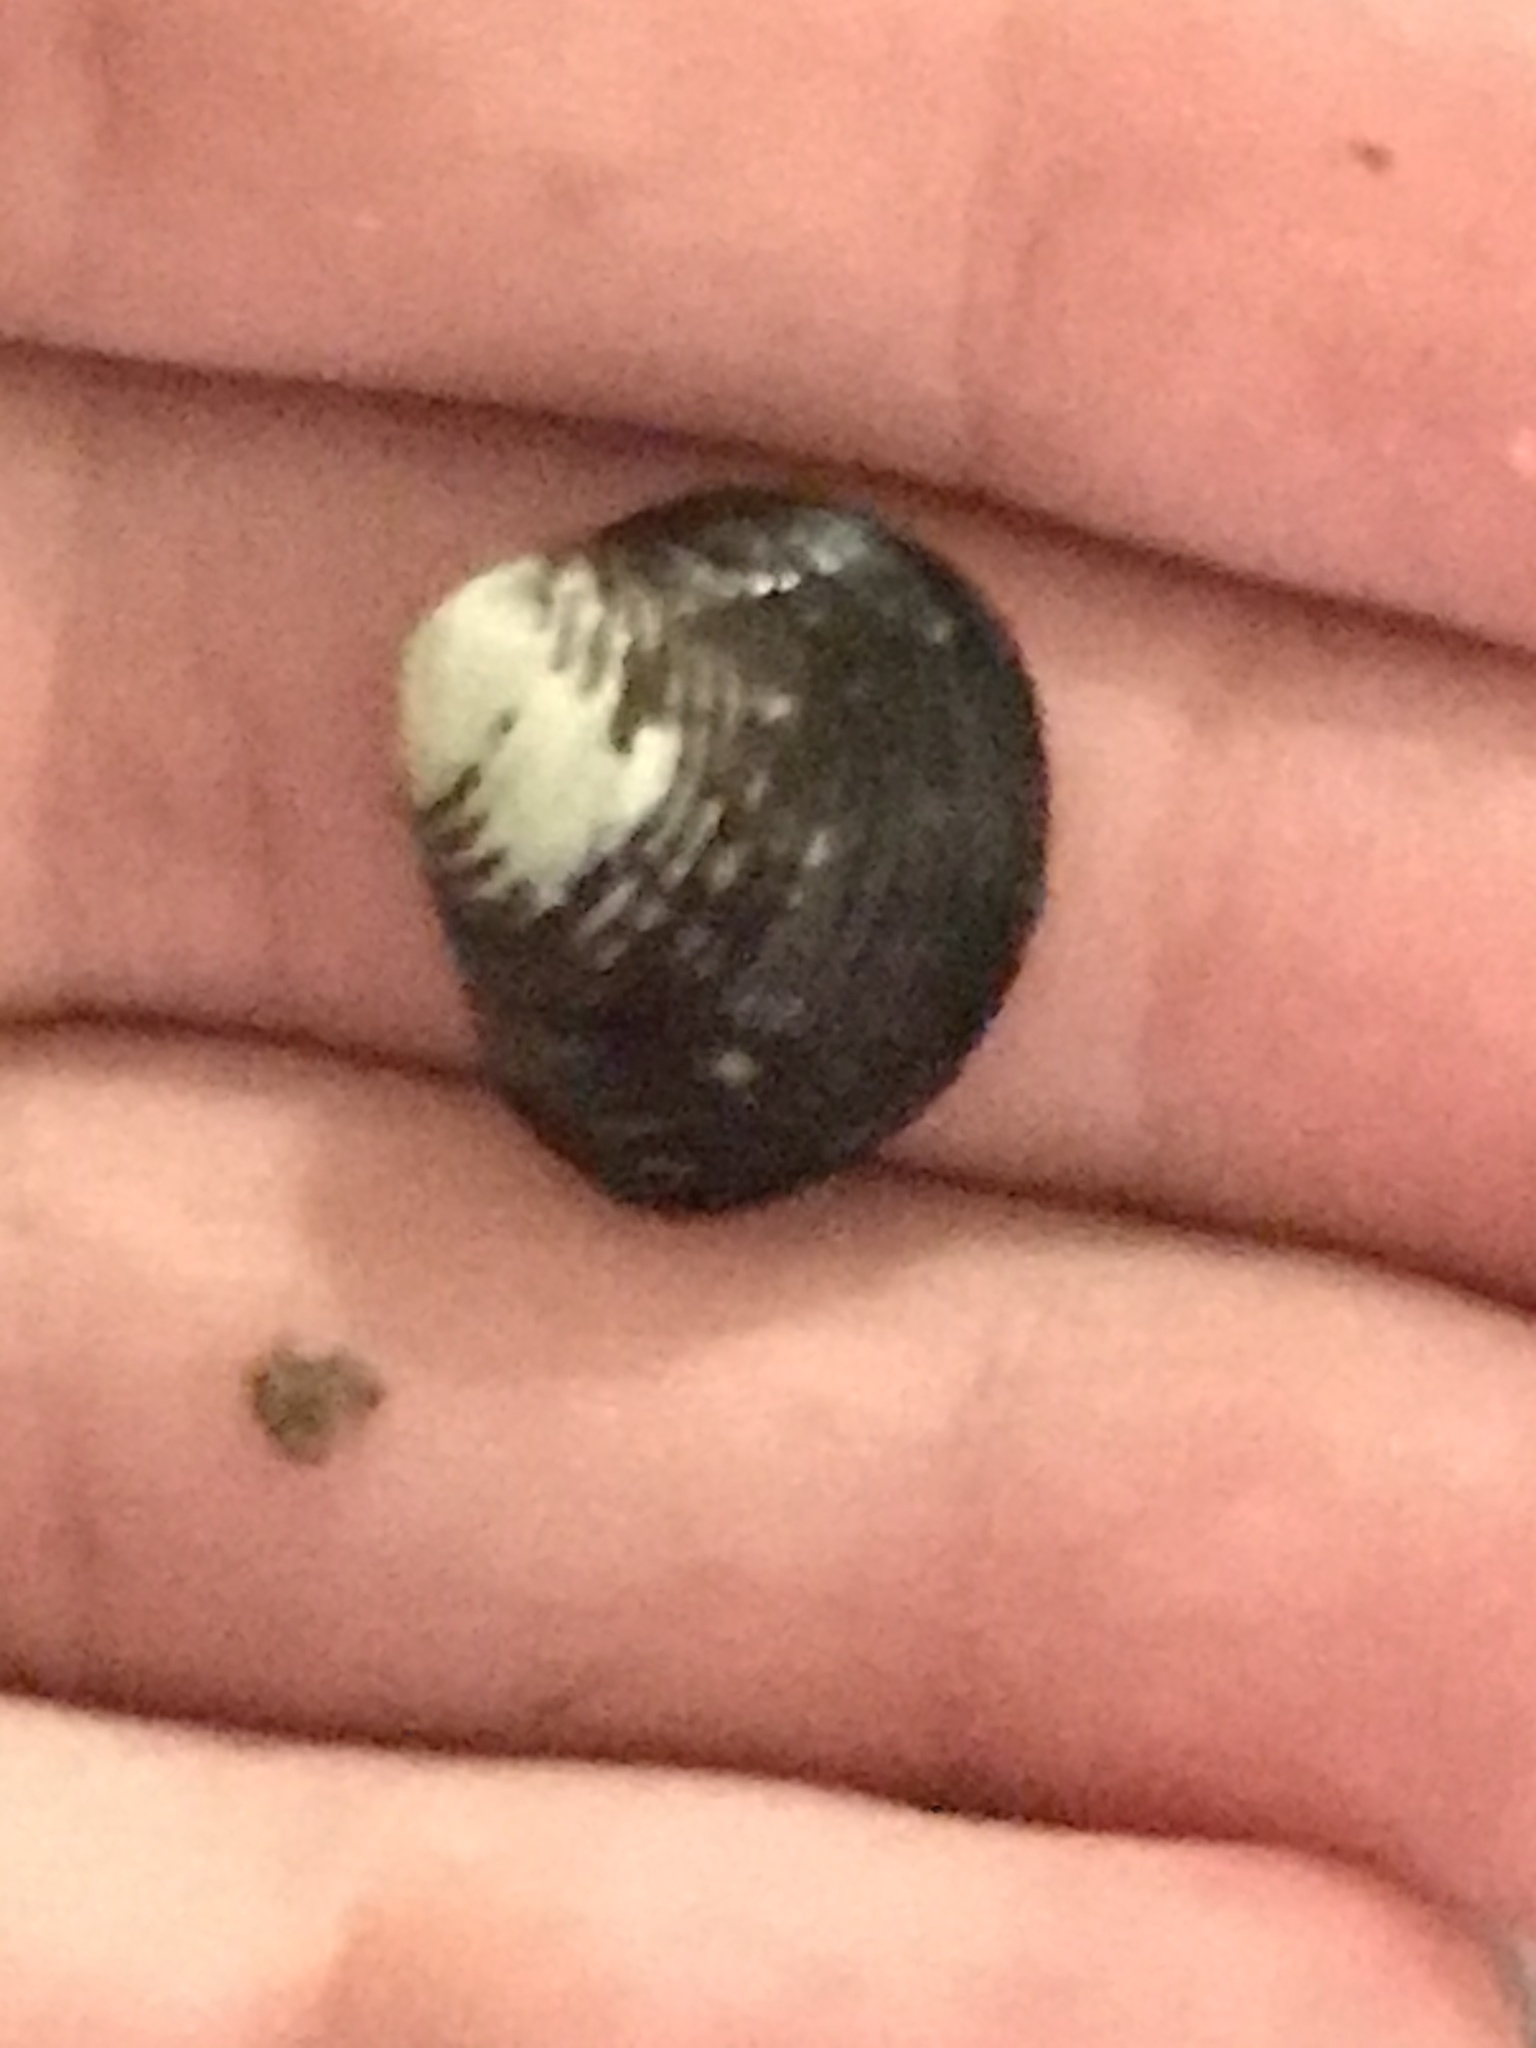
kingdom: Animalia
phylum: Mollusca
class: Bivalvia
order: Venerida
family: Cyrenidae
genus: Corbicula
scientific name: Corbicula fluminea
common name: Asian clam
